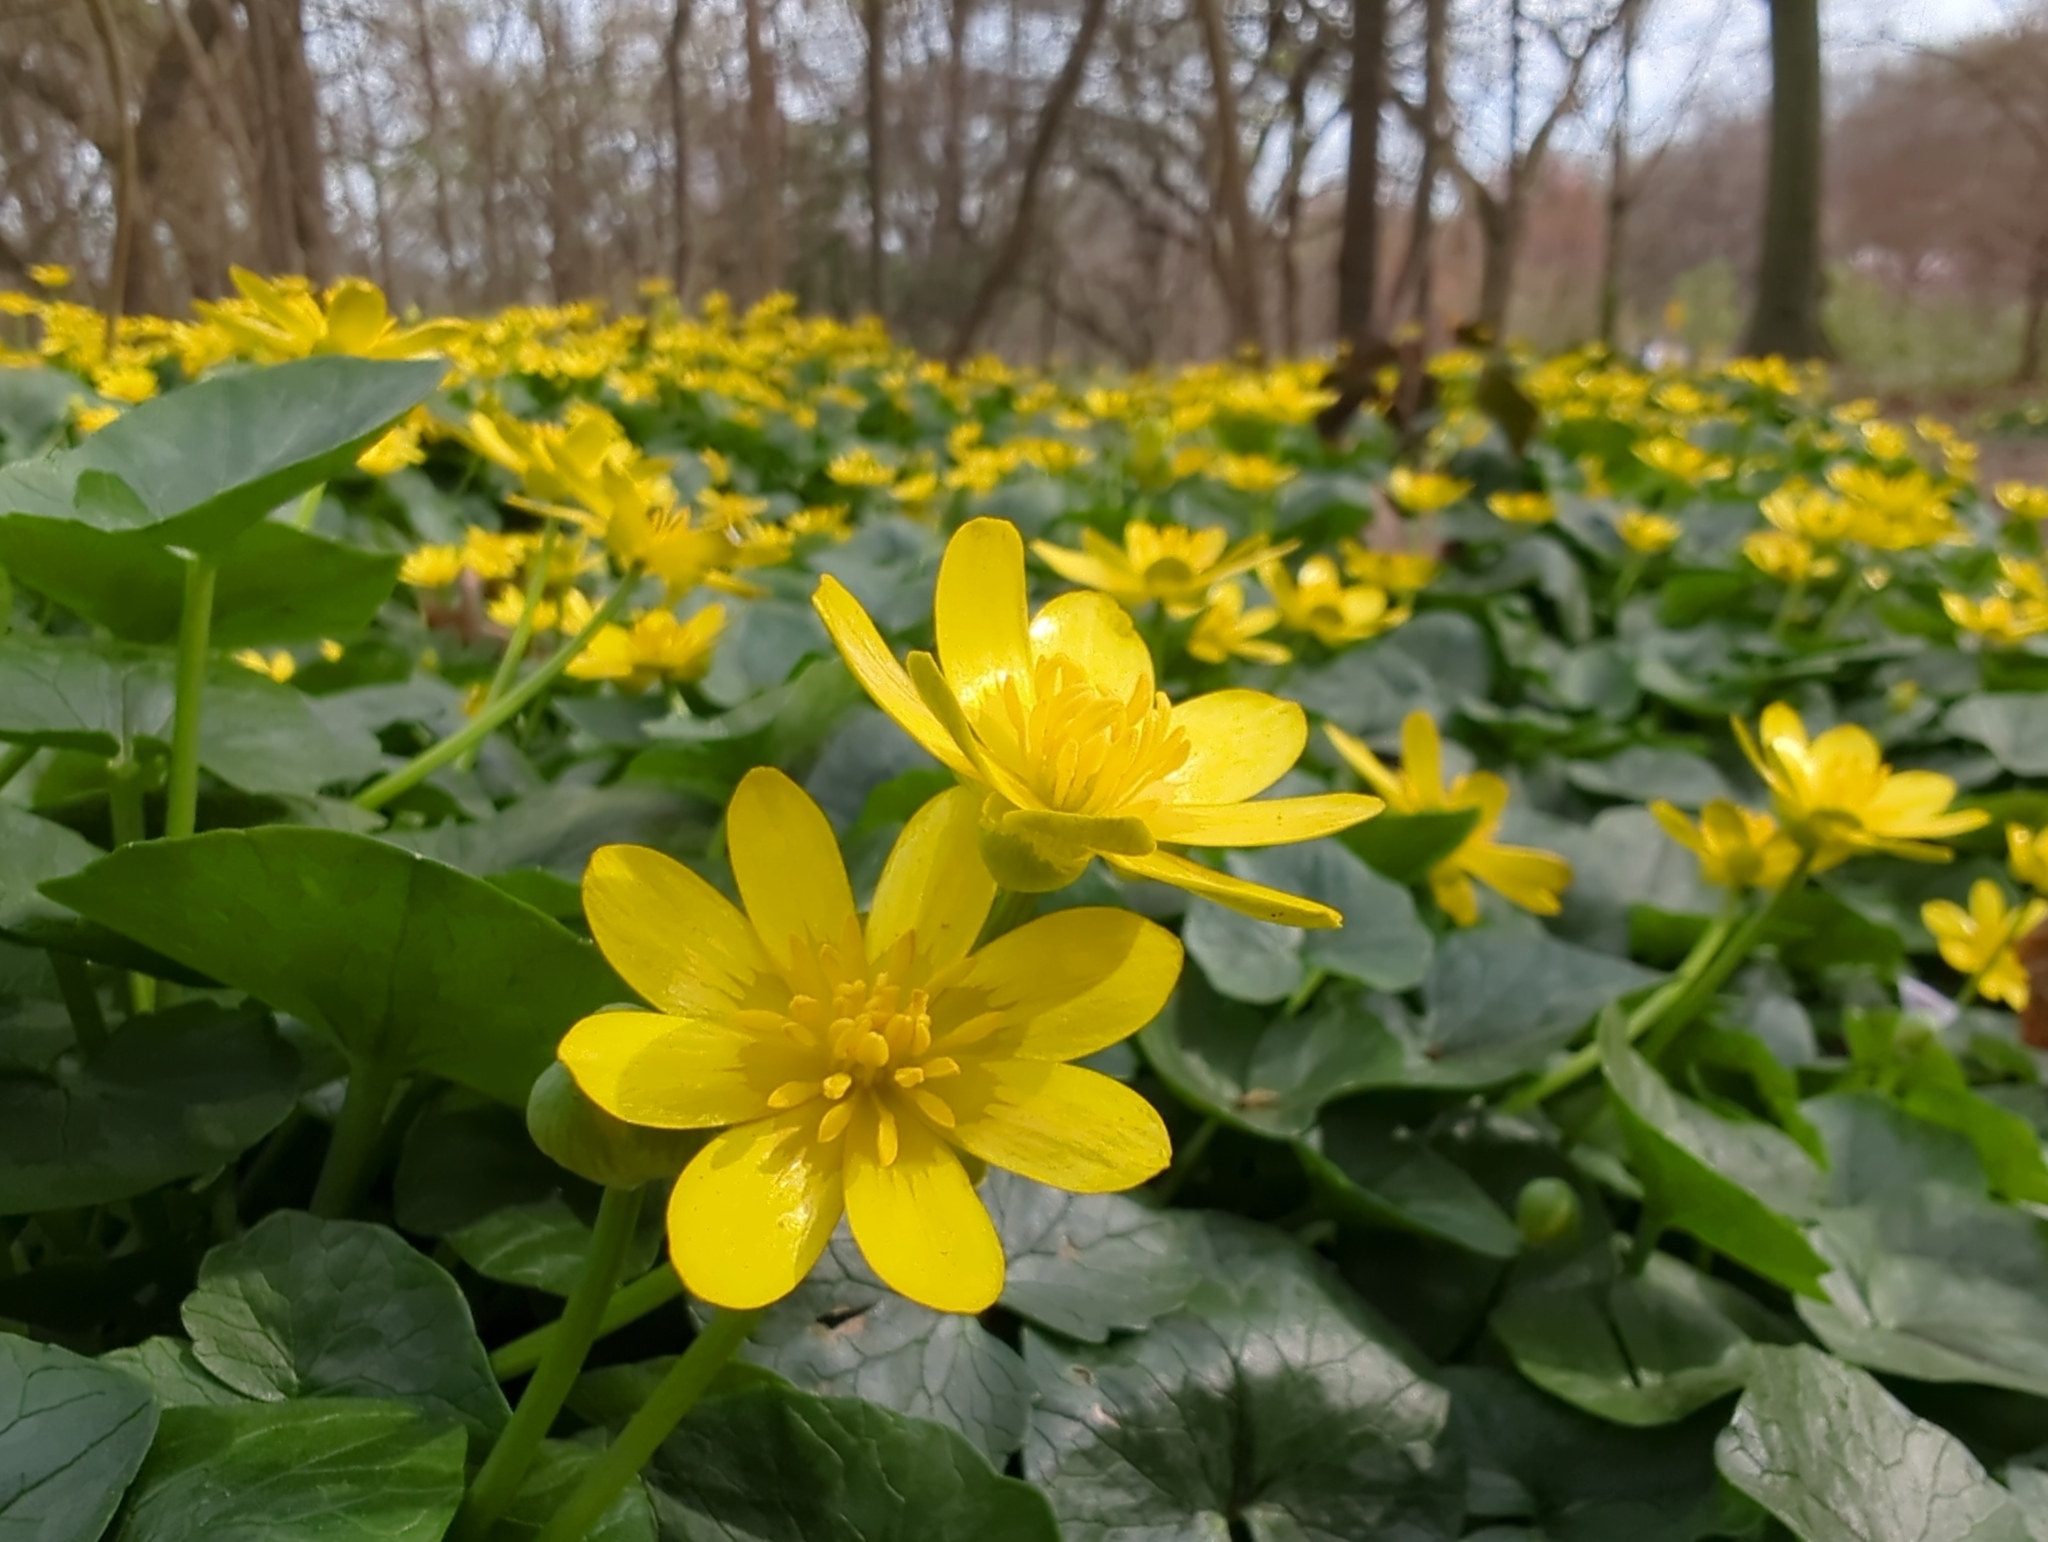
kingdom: Plantae
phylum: Tracheophyta
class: Magnoliopsida
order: Ranunculales
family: Ranunculaceae
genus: Ficaria
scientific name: Ficaria verna
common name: Lesser celandine
